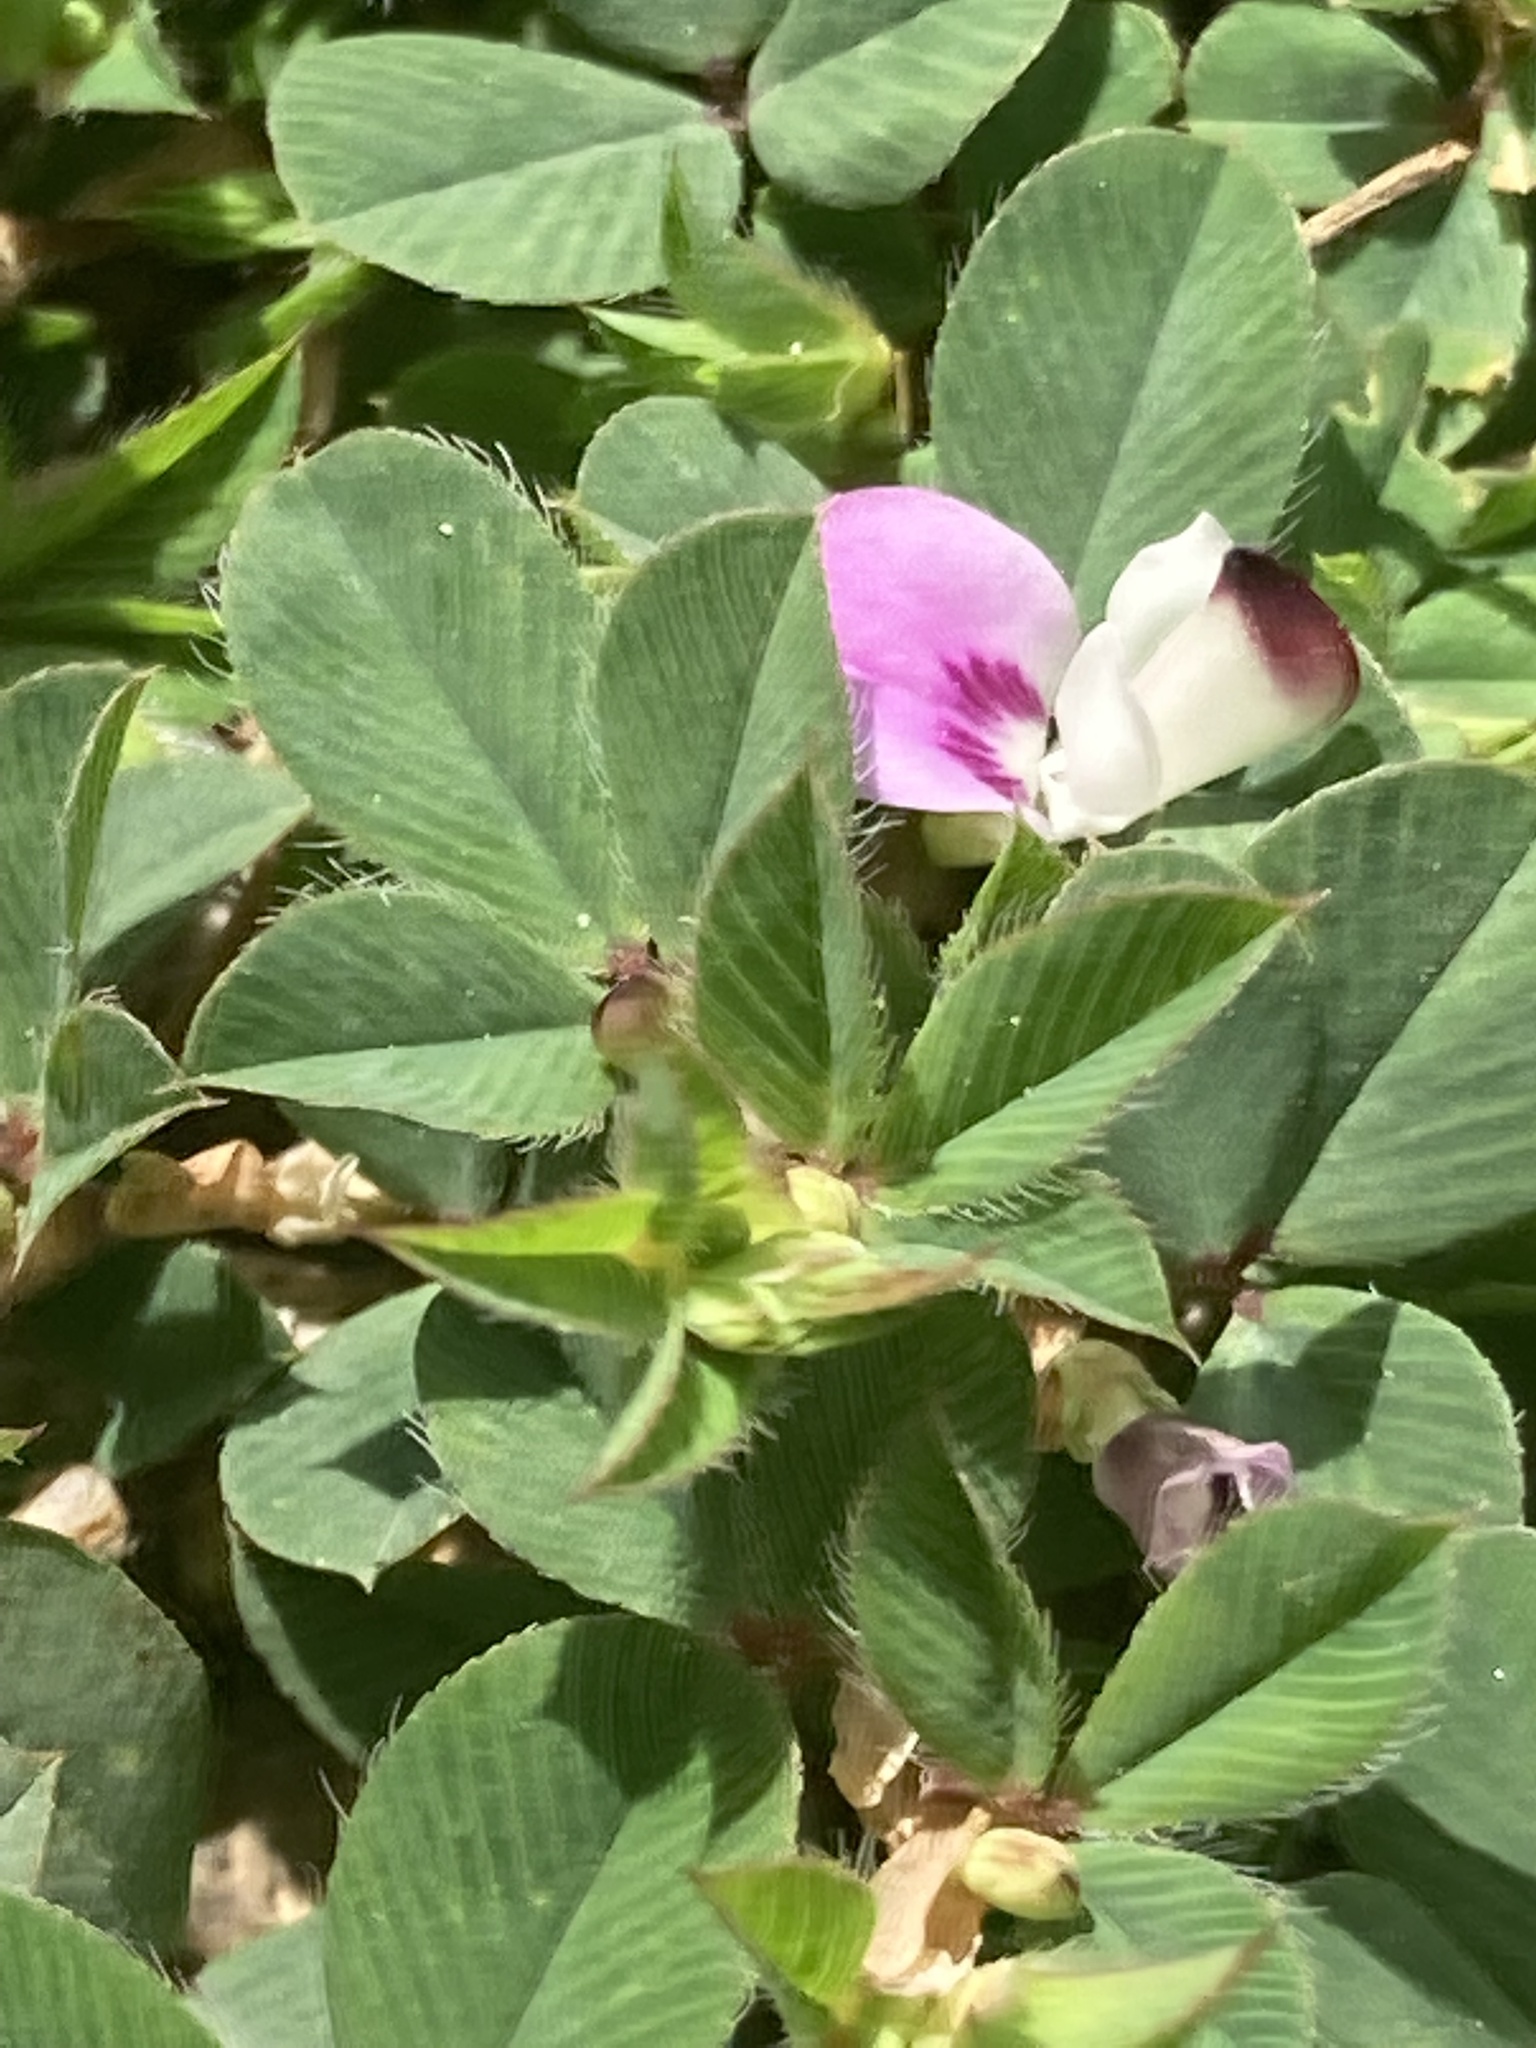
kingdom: Plantae
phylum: Tracheophyta
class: Magnoliopsida
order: Fabales
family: Fabaceae
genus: Kummerowia
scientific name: Kummerowia stipulacea
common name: Korean clover
